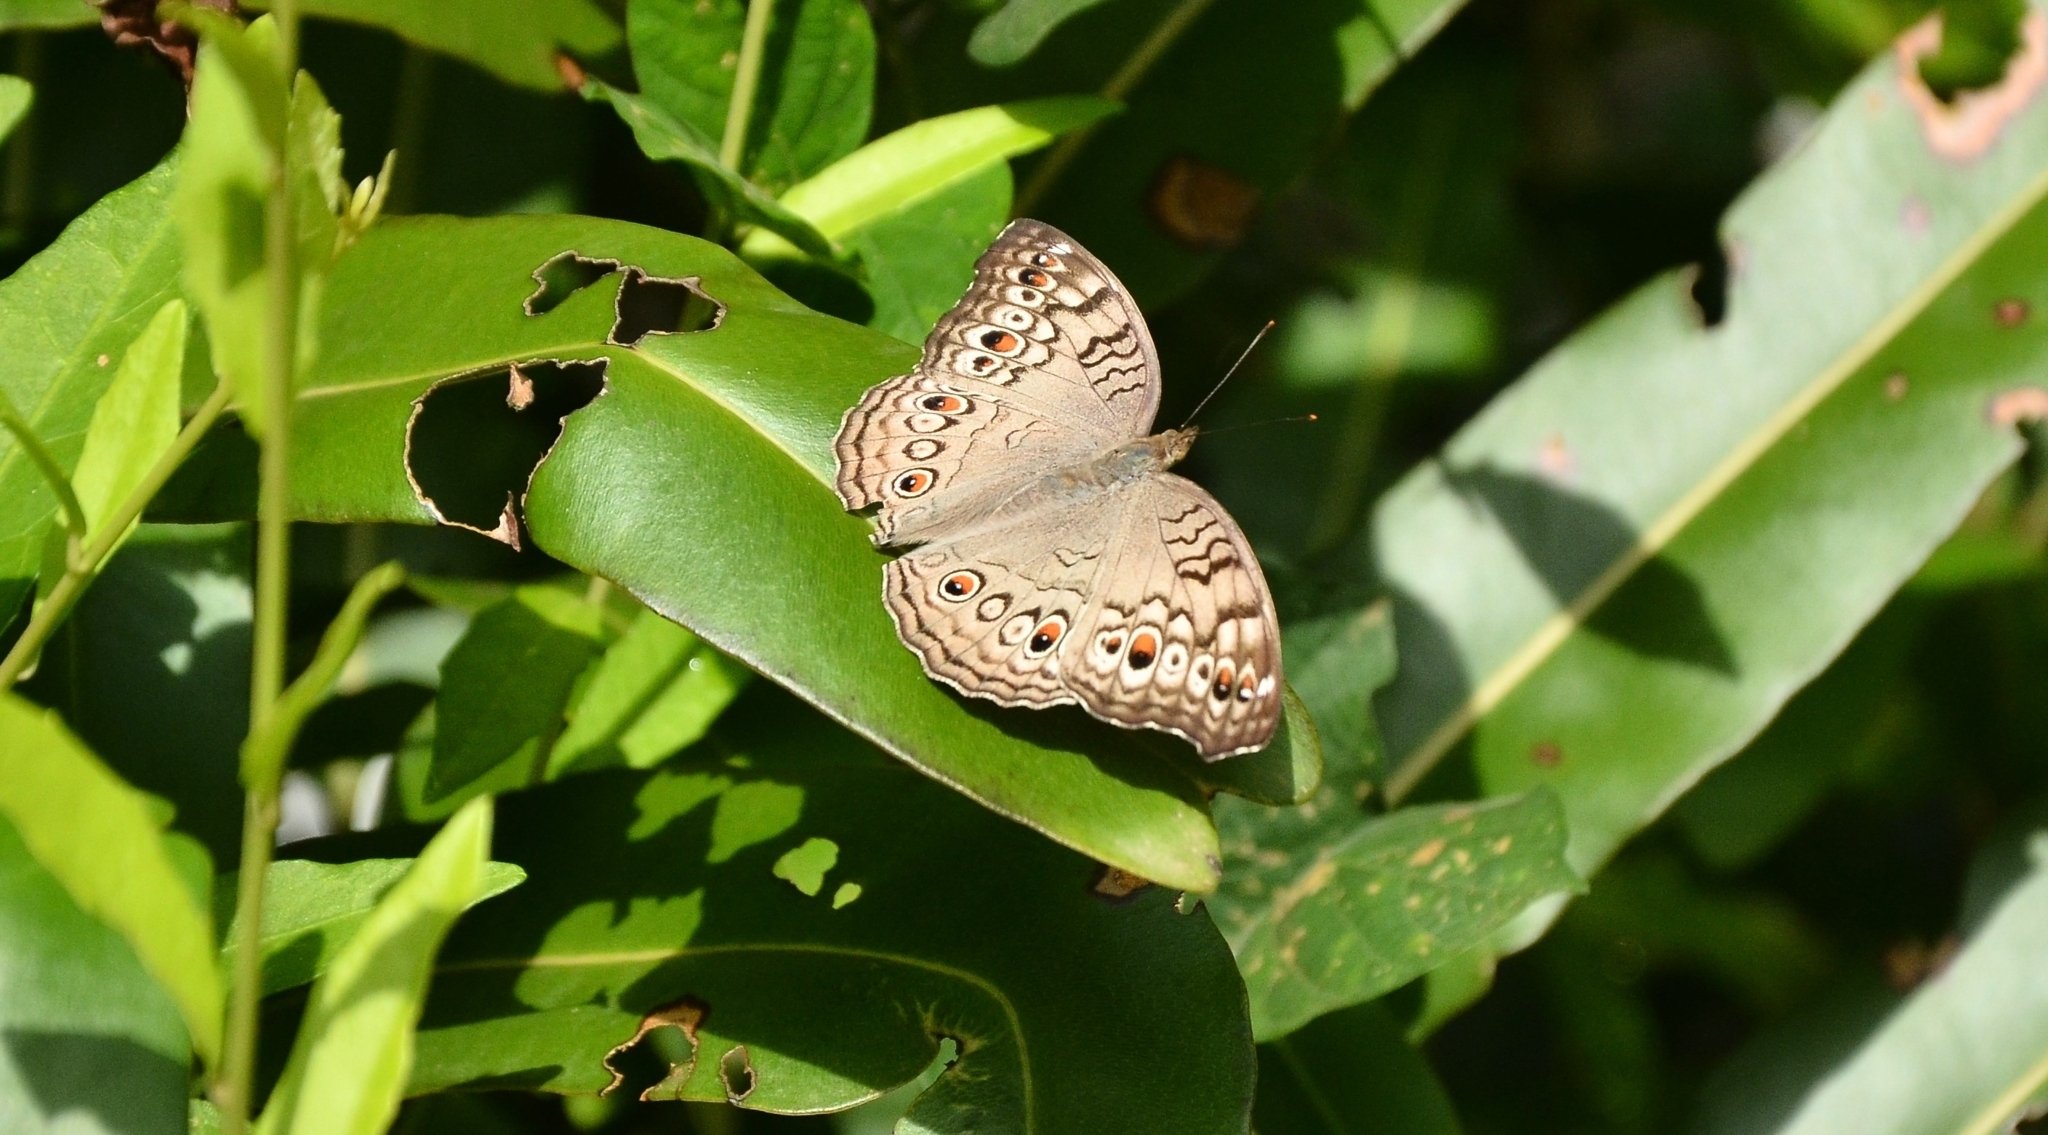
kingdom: Animalia
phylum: Arthropoda
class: Insecta
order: Lepidoptera
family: Nymphalidae
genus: Junonia
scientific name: Junonia atlites
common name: Grey pansy
